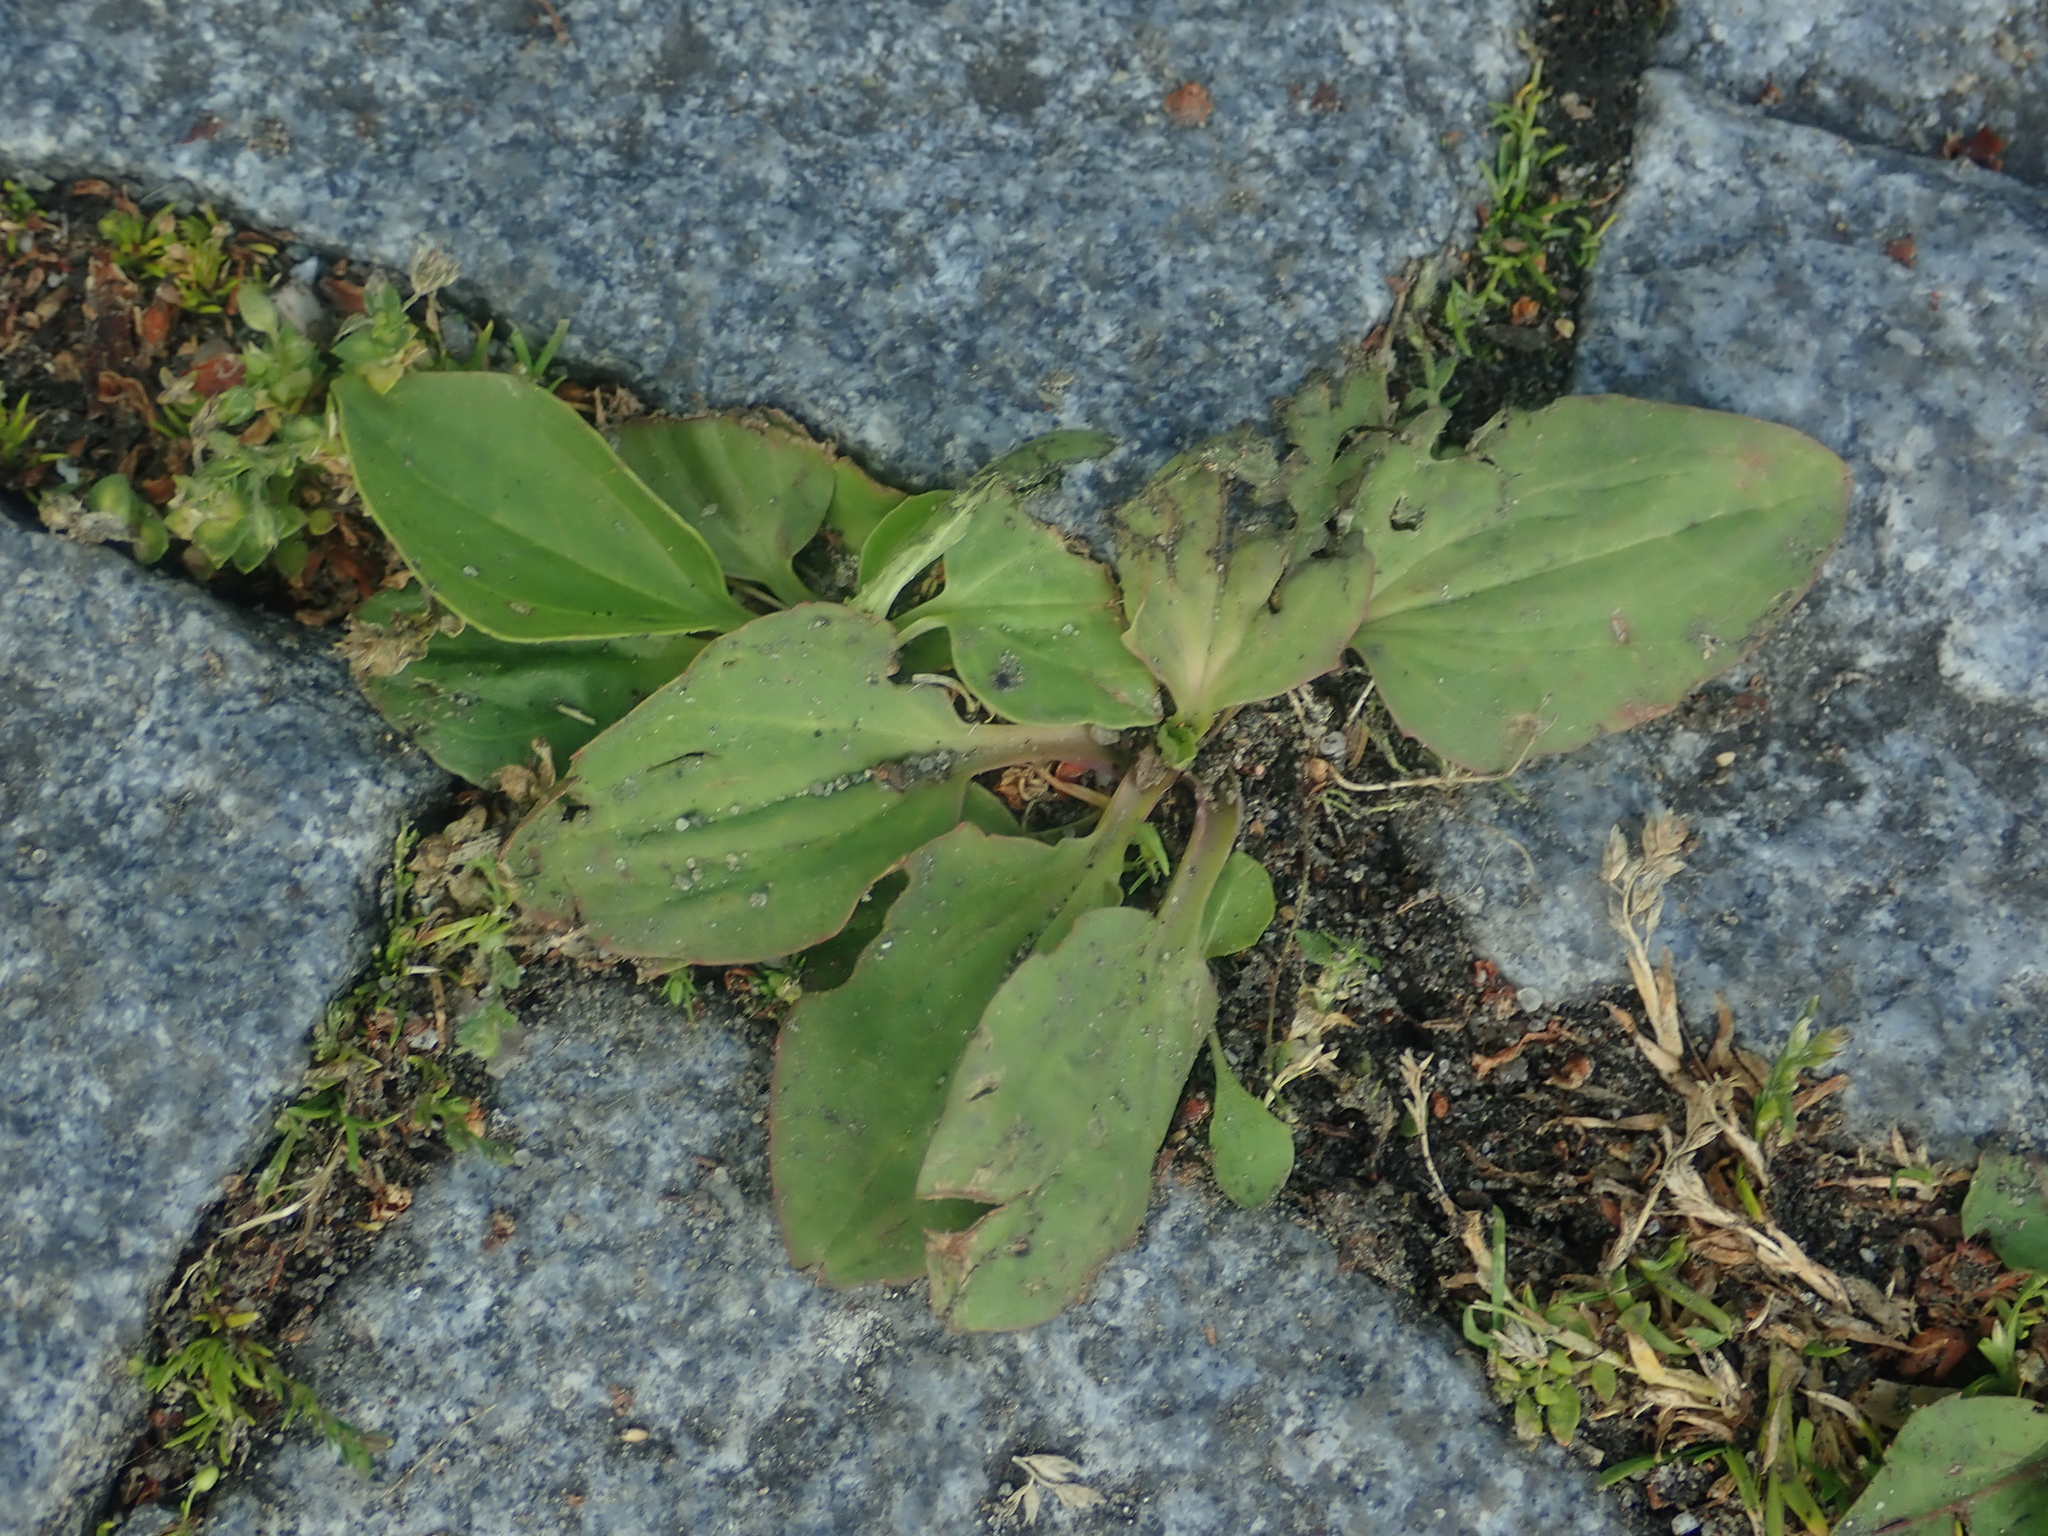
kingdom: Plantae
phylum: Tracheophyta
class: Magnoliopsida
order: Lamiales
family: Plantaginaceae
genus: Plantago
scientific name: Plantago major
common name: Common plantain
